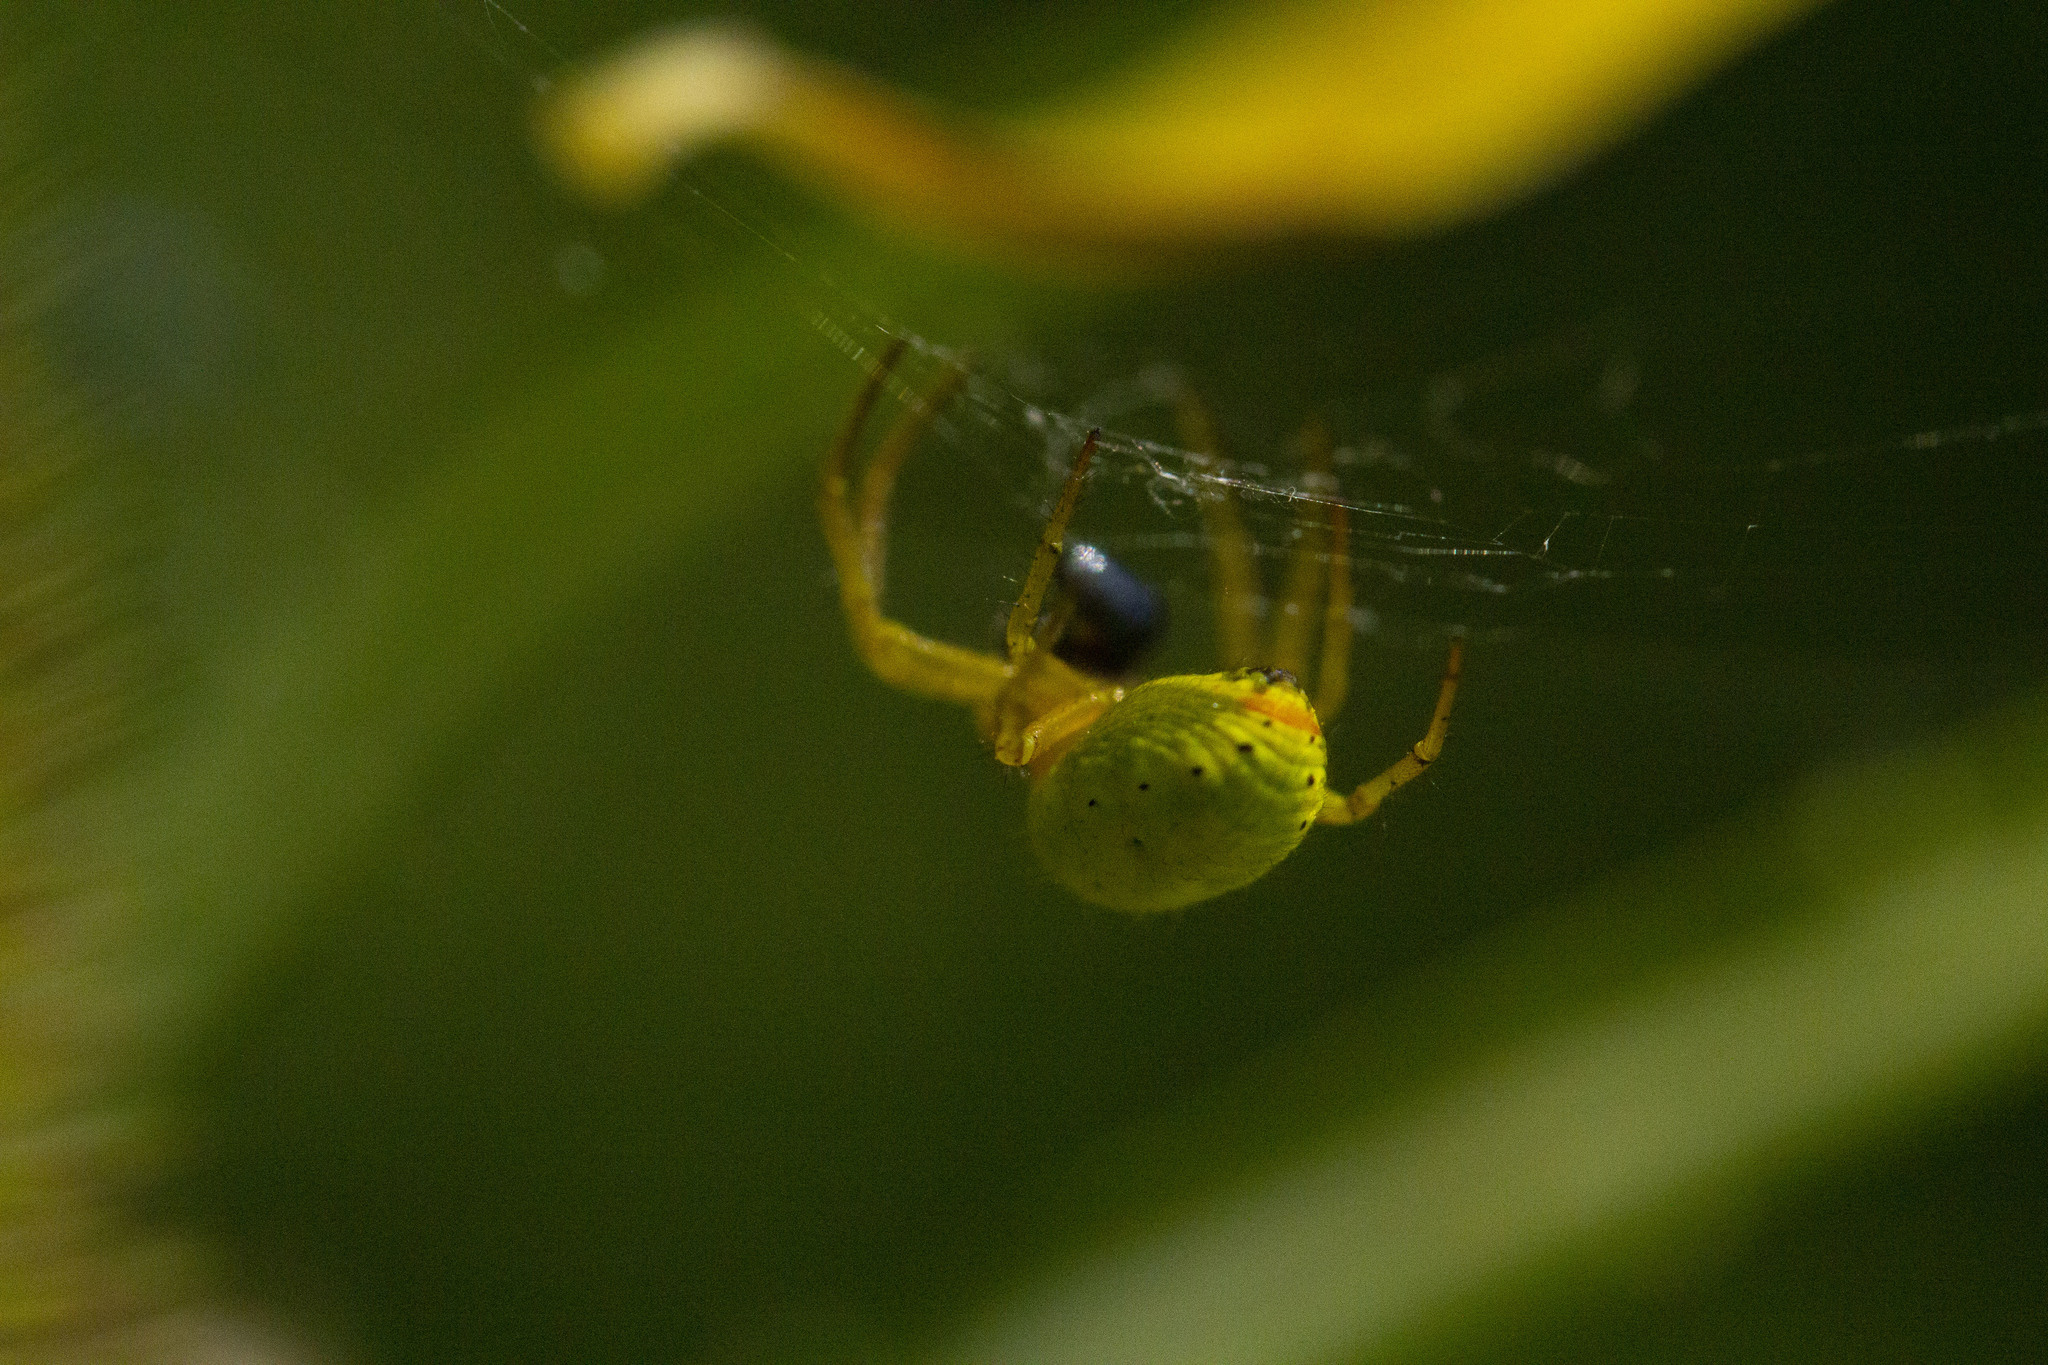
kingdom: Animalia
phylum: Arthropoda
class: Arachnida
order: Araneae
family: Araneidae
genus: Araniella
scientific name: Araniella
